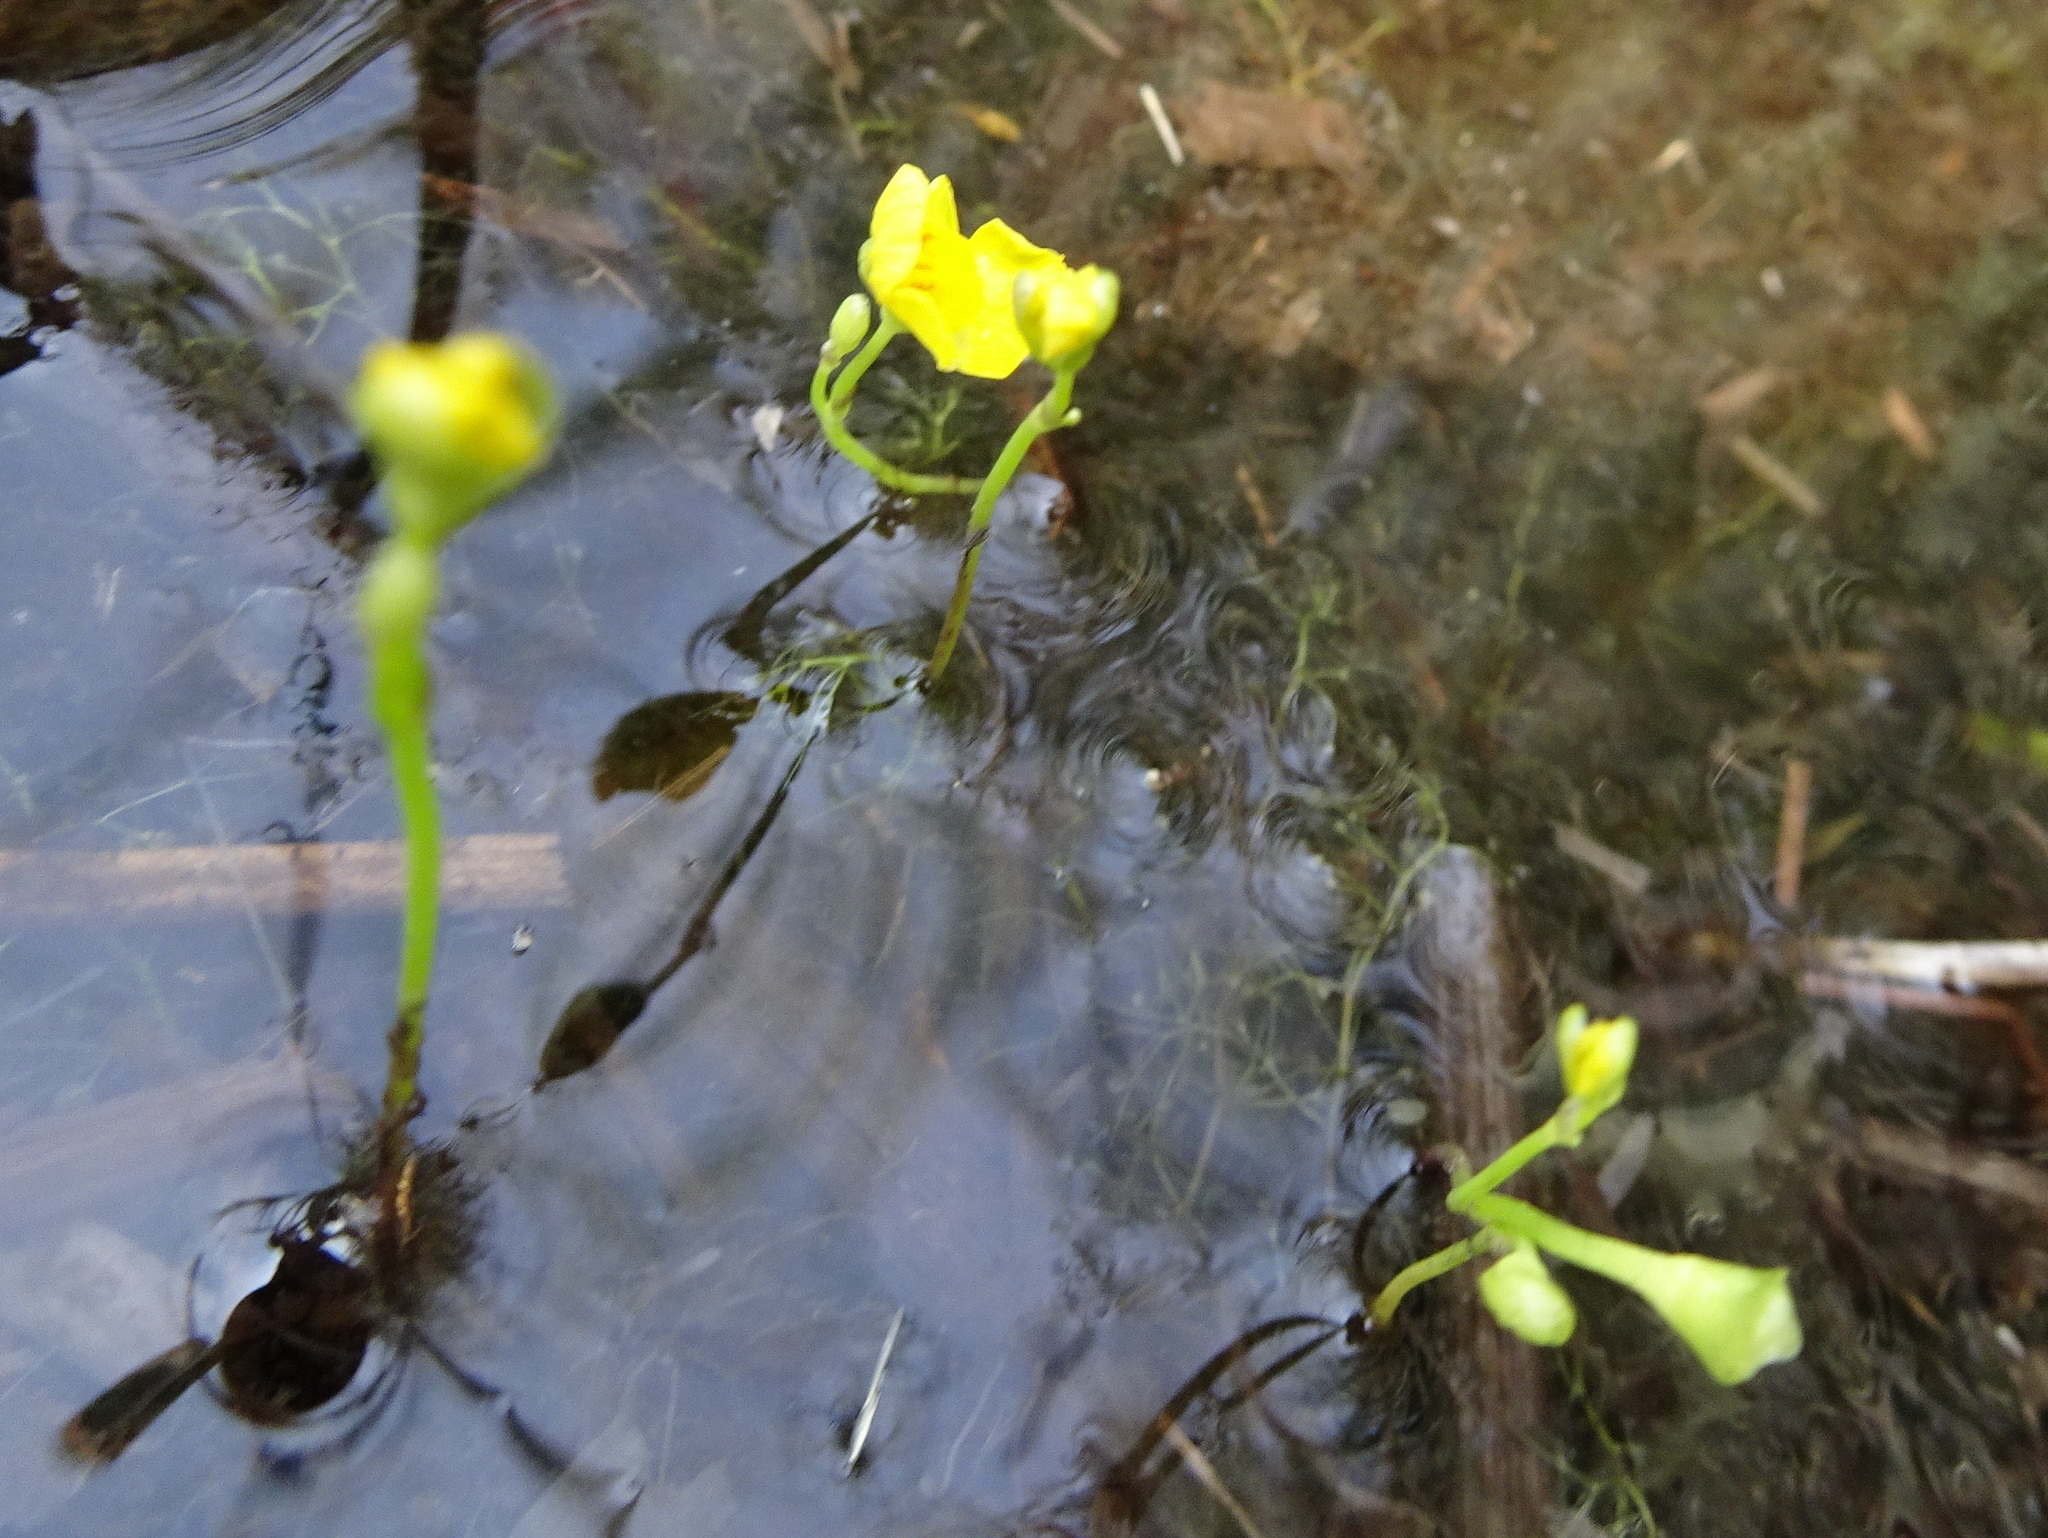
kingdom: Plantae
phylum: Tracheophyta
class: Magnoliopsida
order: Lamiales
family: Lentibulariaceae
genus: Utricularia
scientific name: Utricularia gibba
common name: Humped bladderwort
